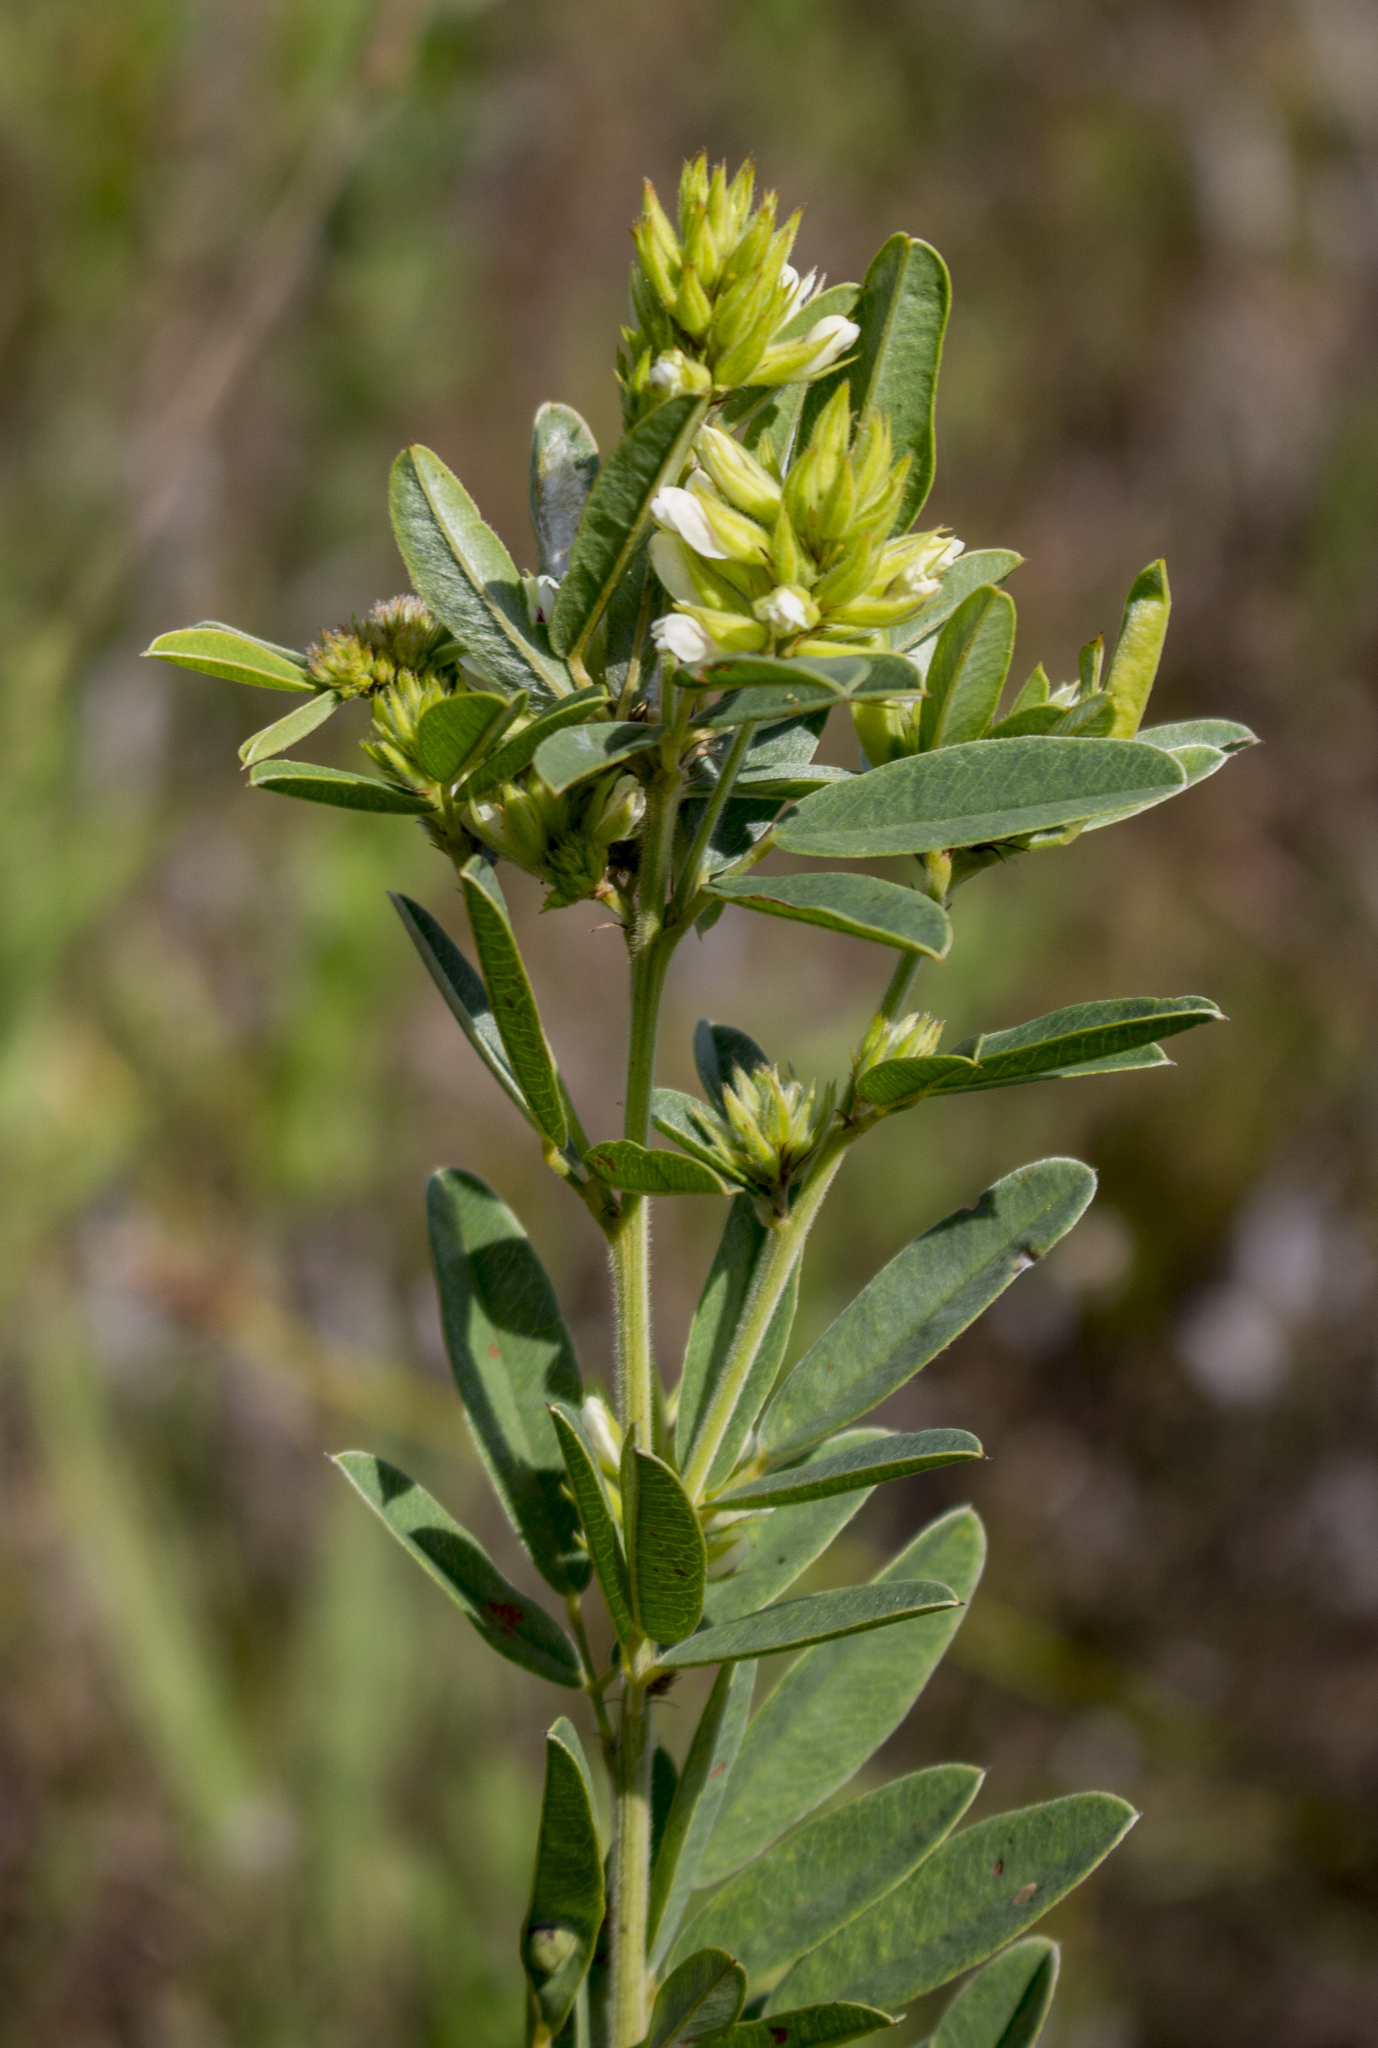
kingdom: Plantae
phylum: Tracheophyta
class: Magnoliopsida
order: Fabales
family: Fabaceae
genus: Lespedeza
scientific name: Lespedeza capitata
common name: Dusty clover
